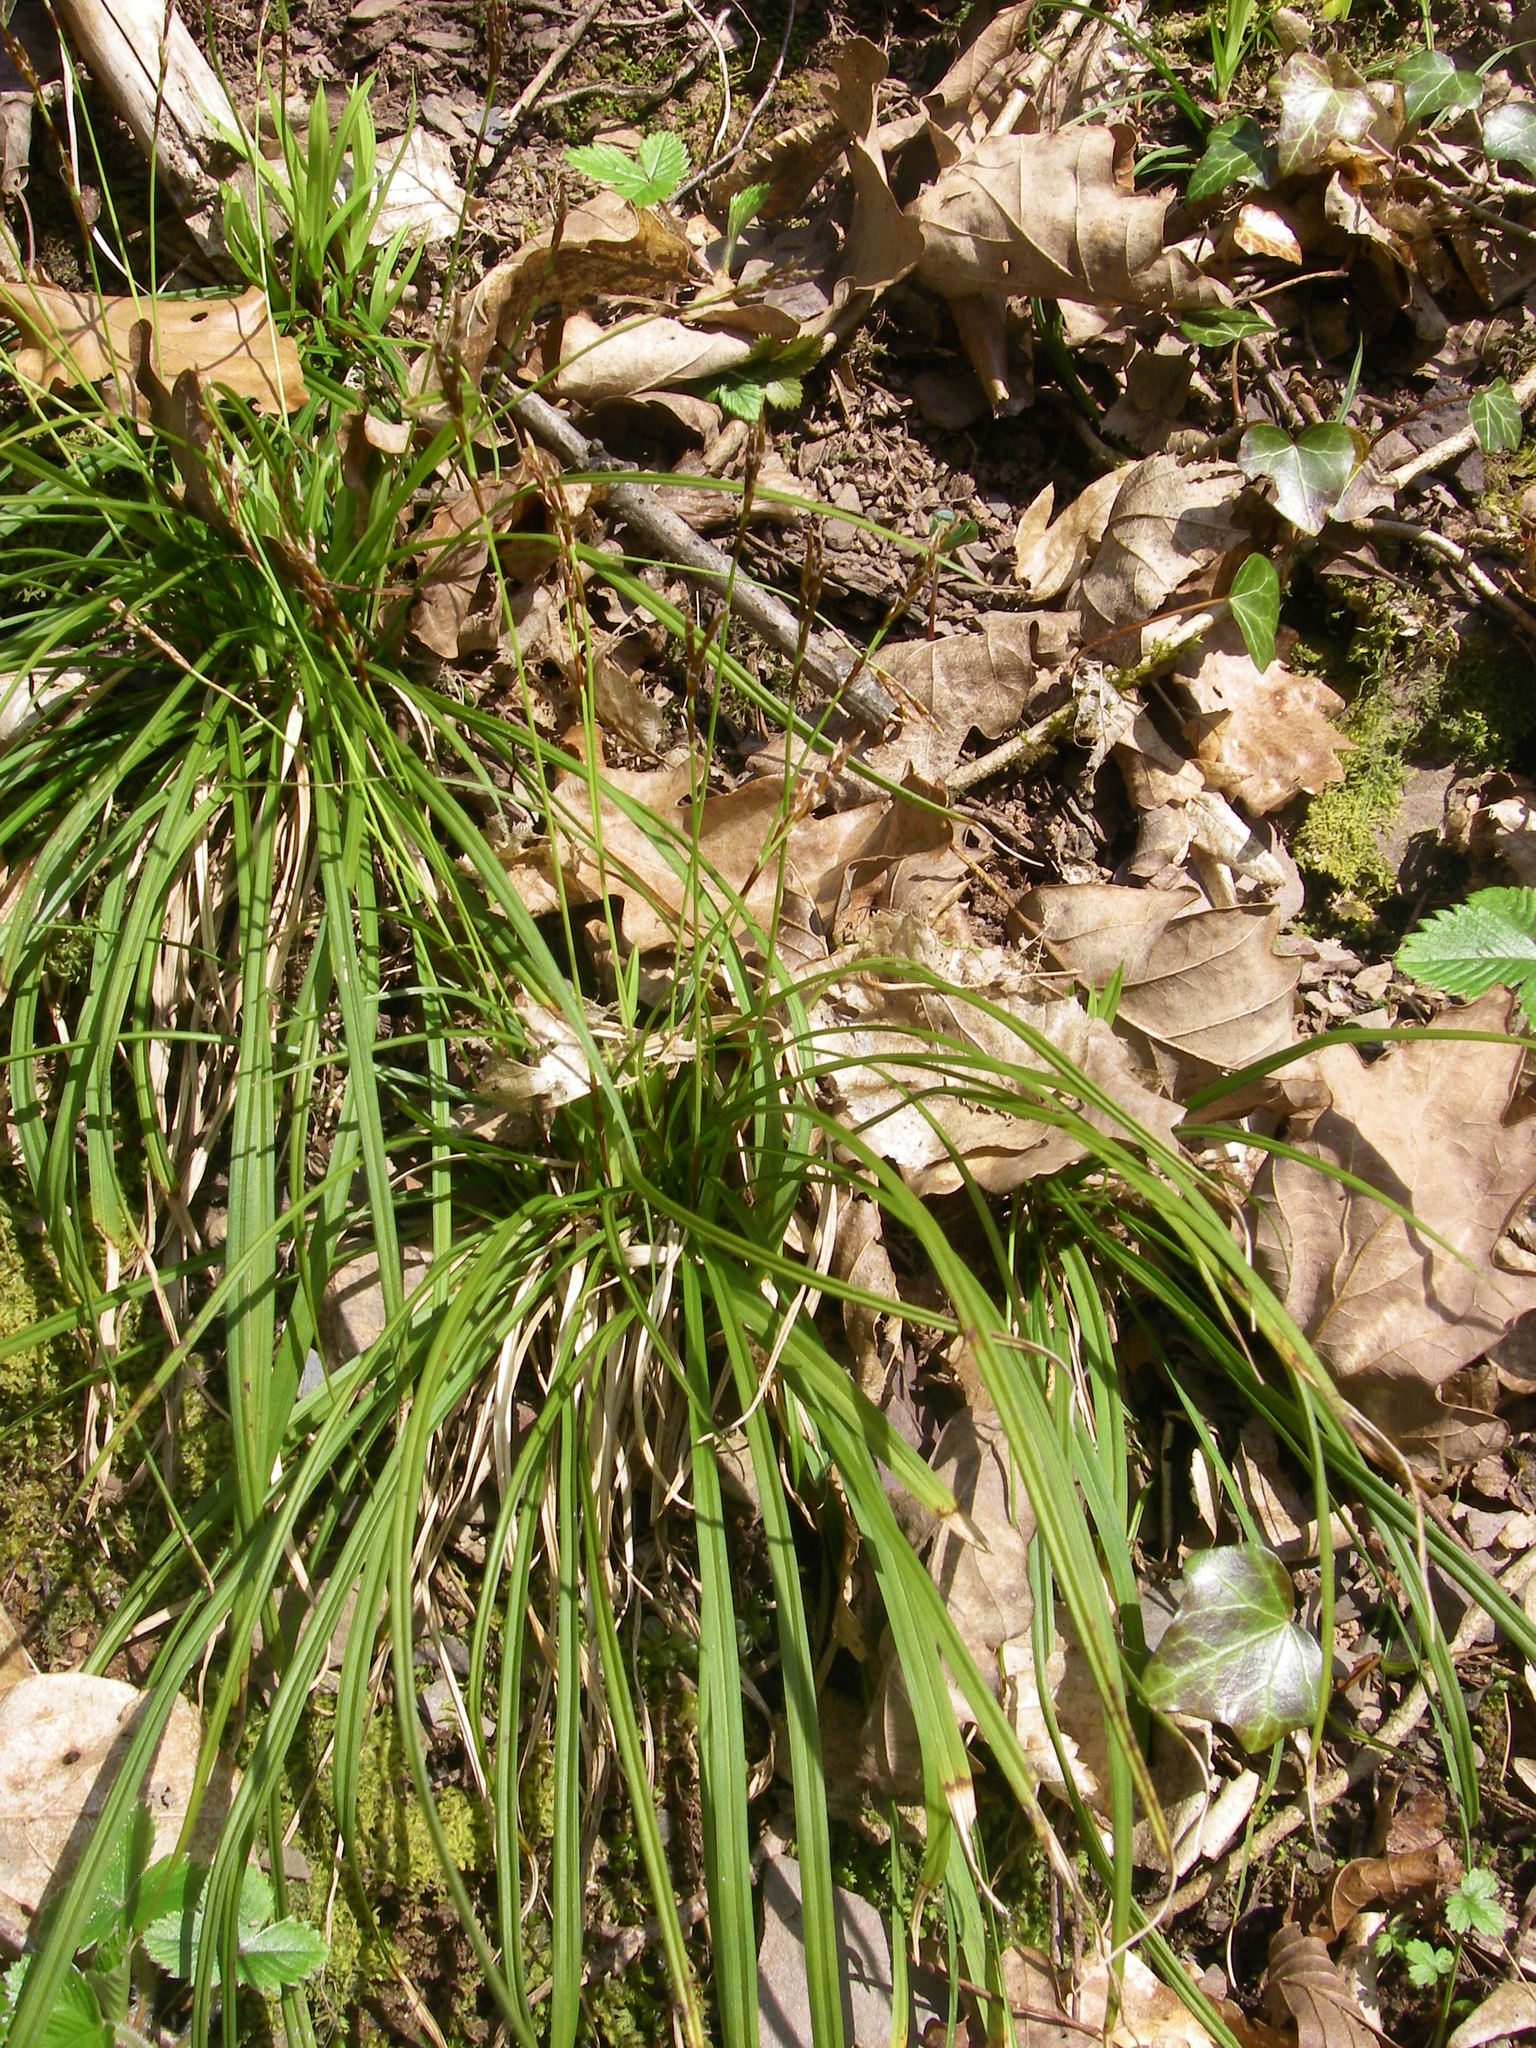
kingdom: Plantae
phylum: Tracheophyta
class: Liliopsida
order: Poales
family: Cyperaceae
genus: Carex
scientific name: Carex digitata
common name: Fingered sedge
